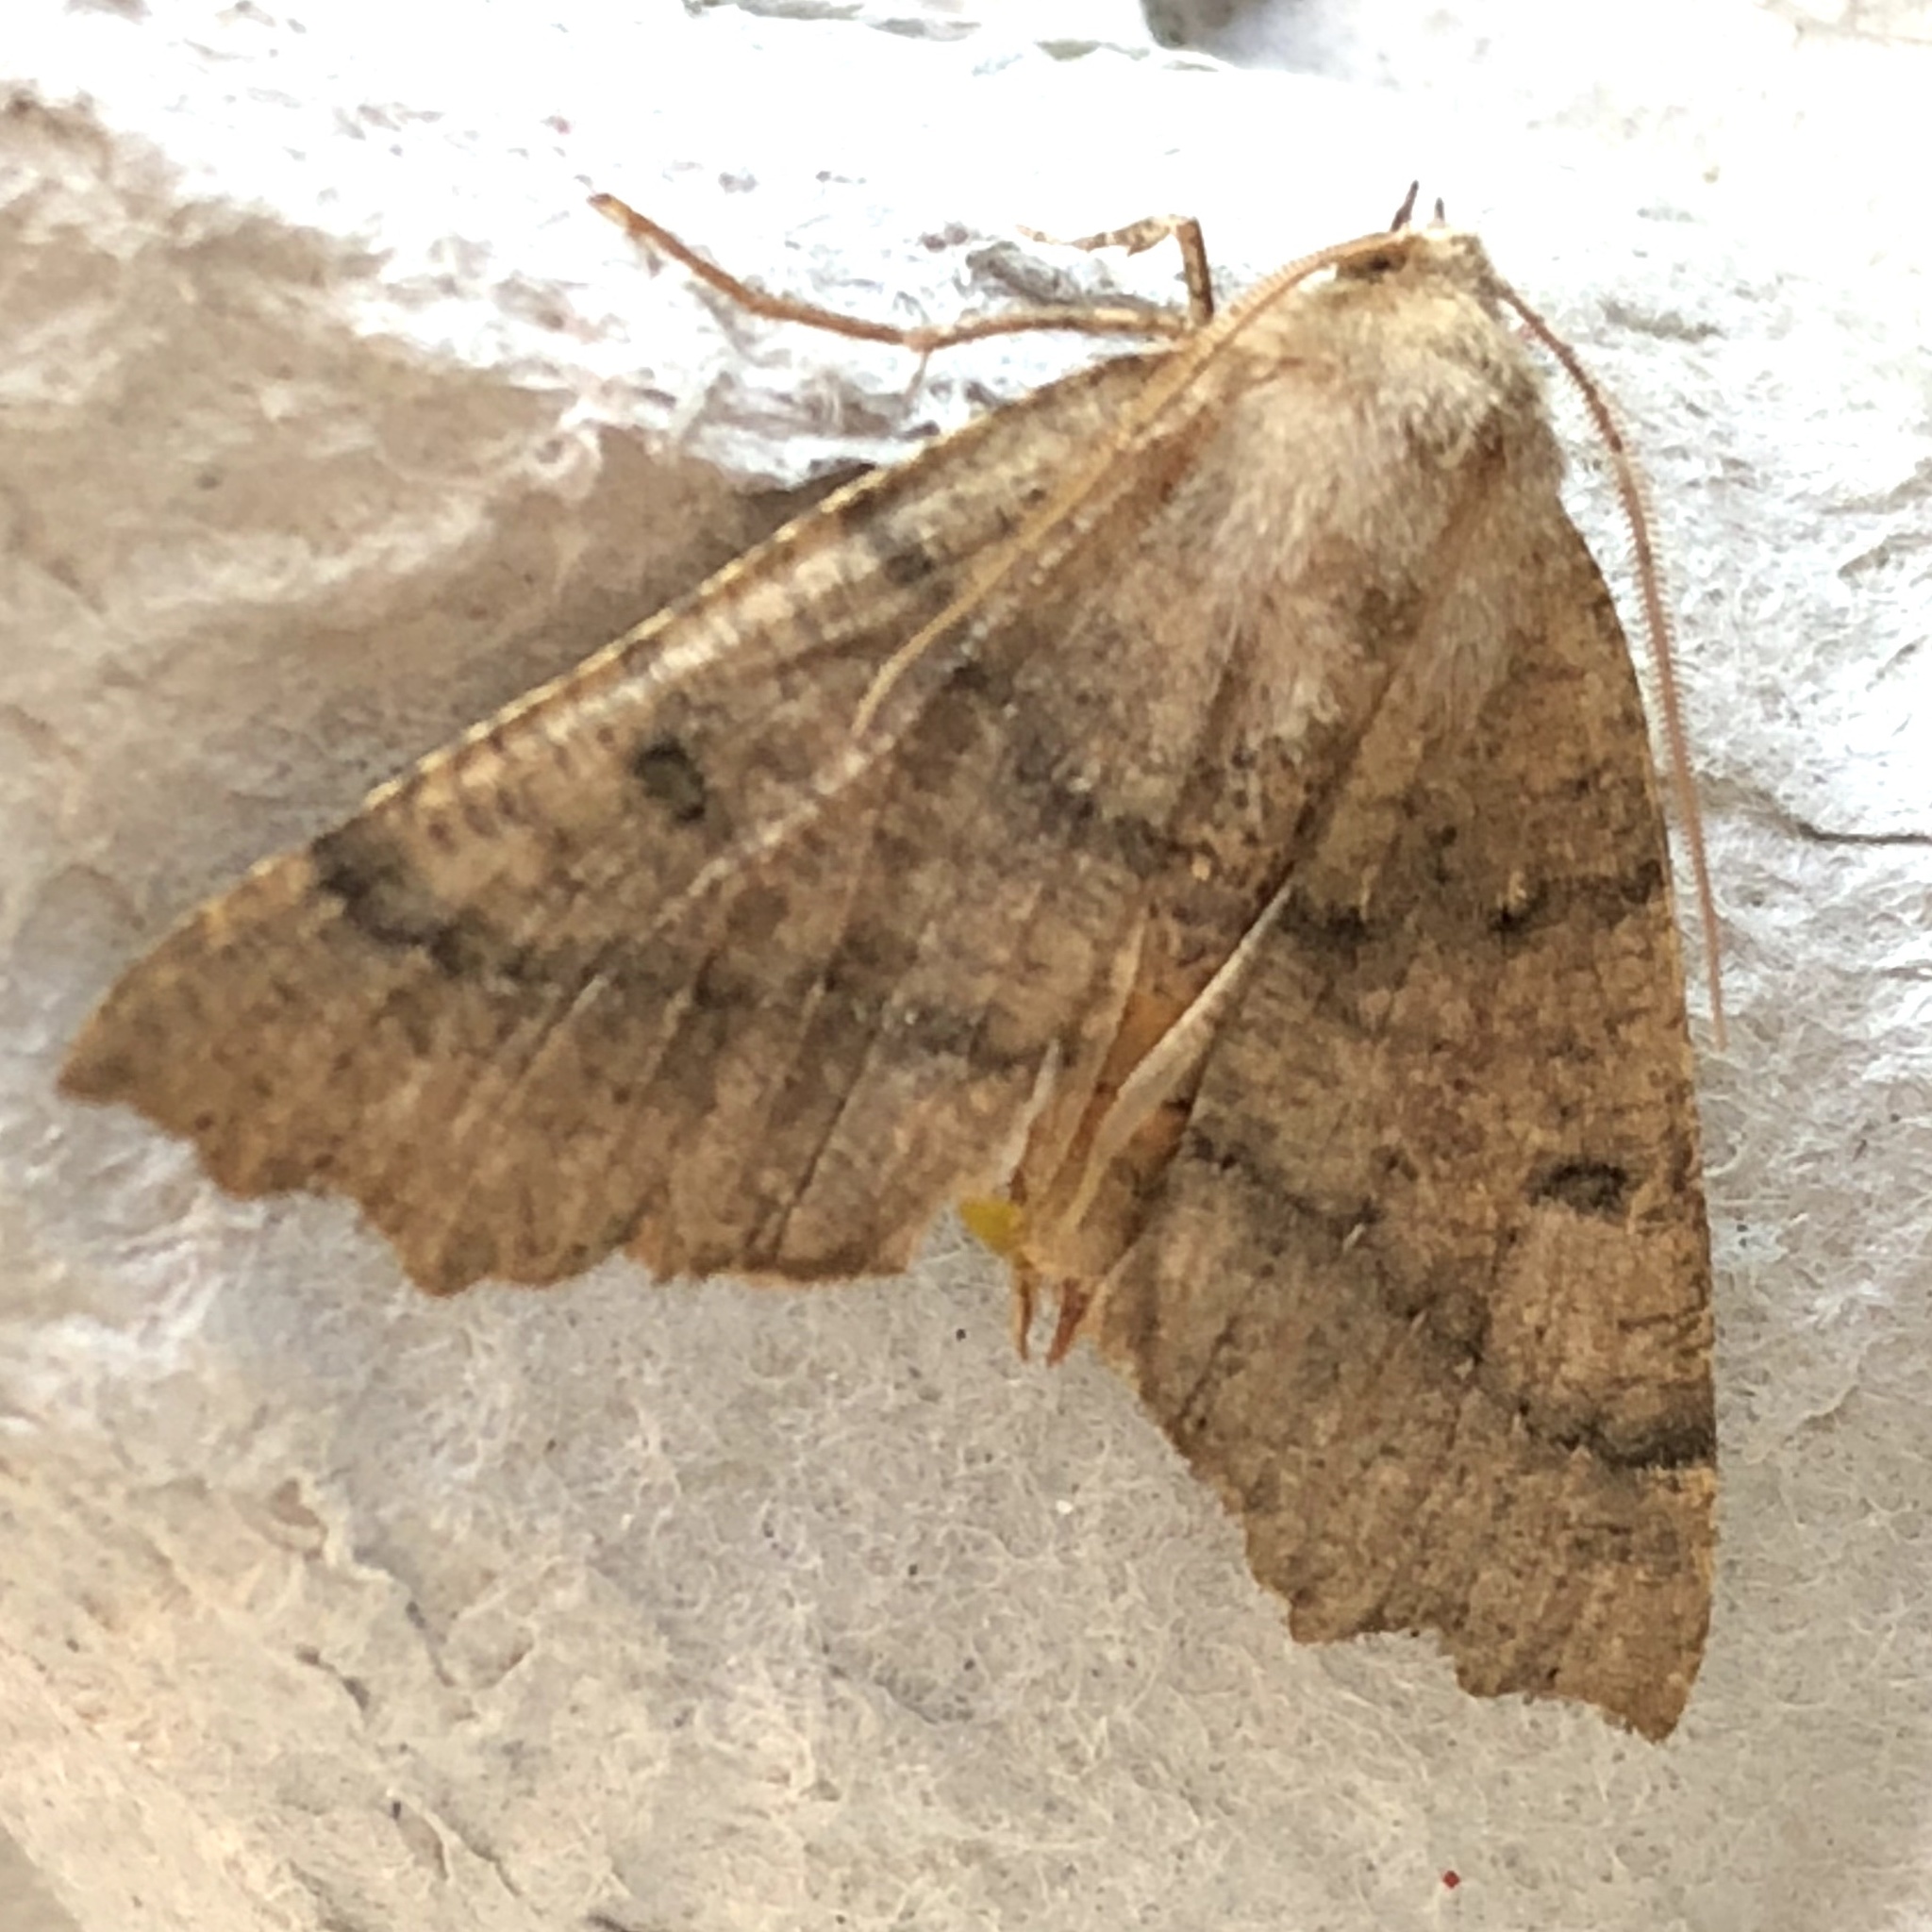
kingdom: Animalia
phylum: Arthropoda
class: Insecta
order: Lepidoptera
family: Geometridae
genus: Odontopera
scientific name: Odontopera bidentata
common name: Scalloped hazel
